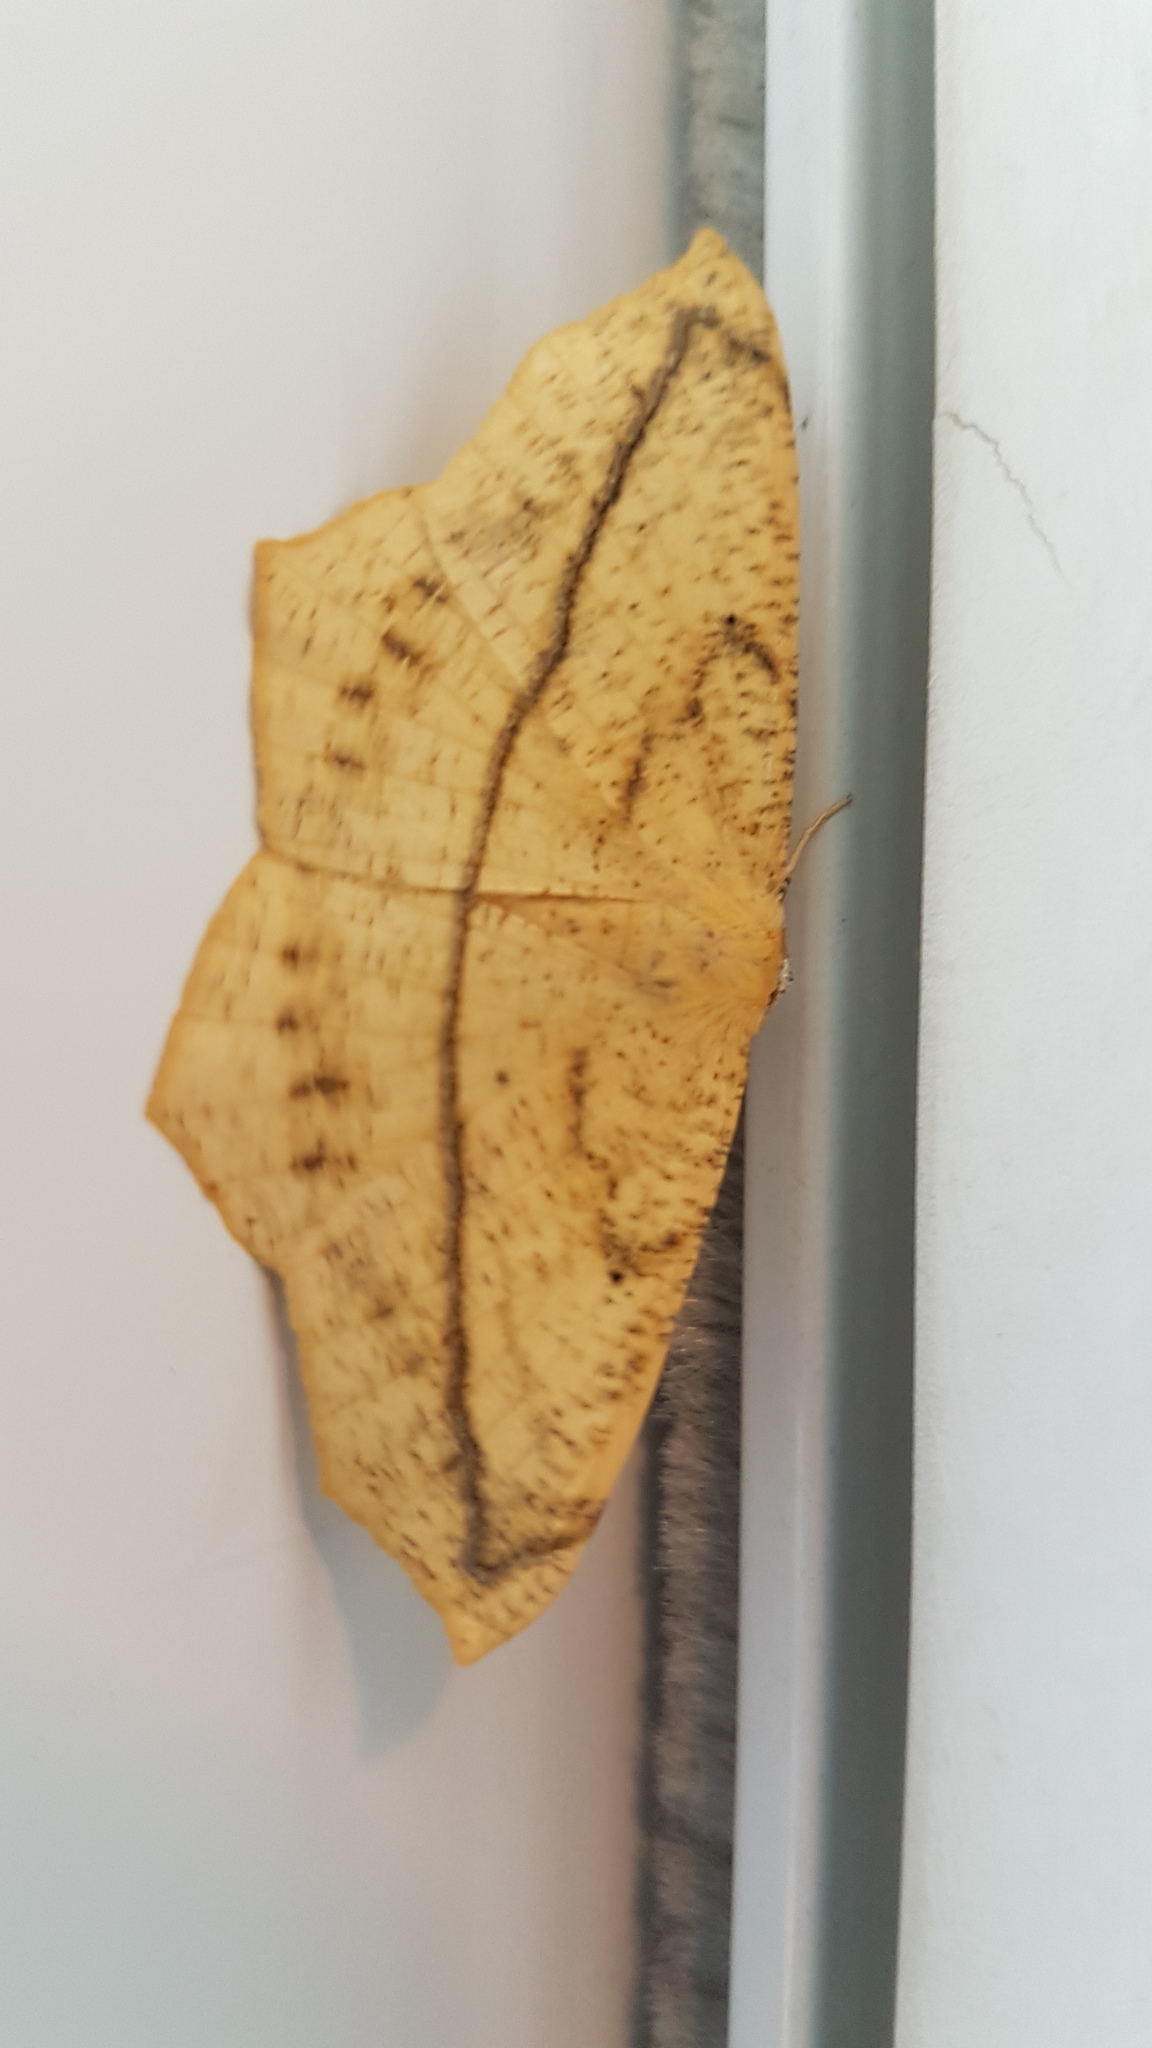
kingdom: Animalia
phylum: Arthropoda
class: Insecta
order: Lepidoptera
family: Geometridae
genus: Prochoerodes
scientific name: Prochoerodes lineola
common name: Large maple spanworm
